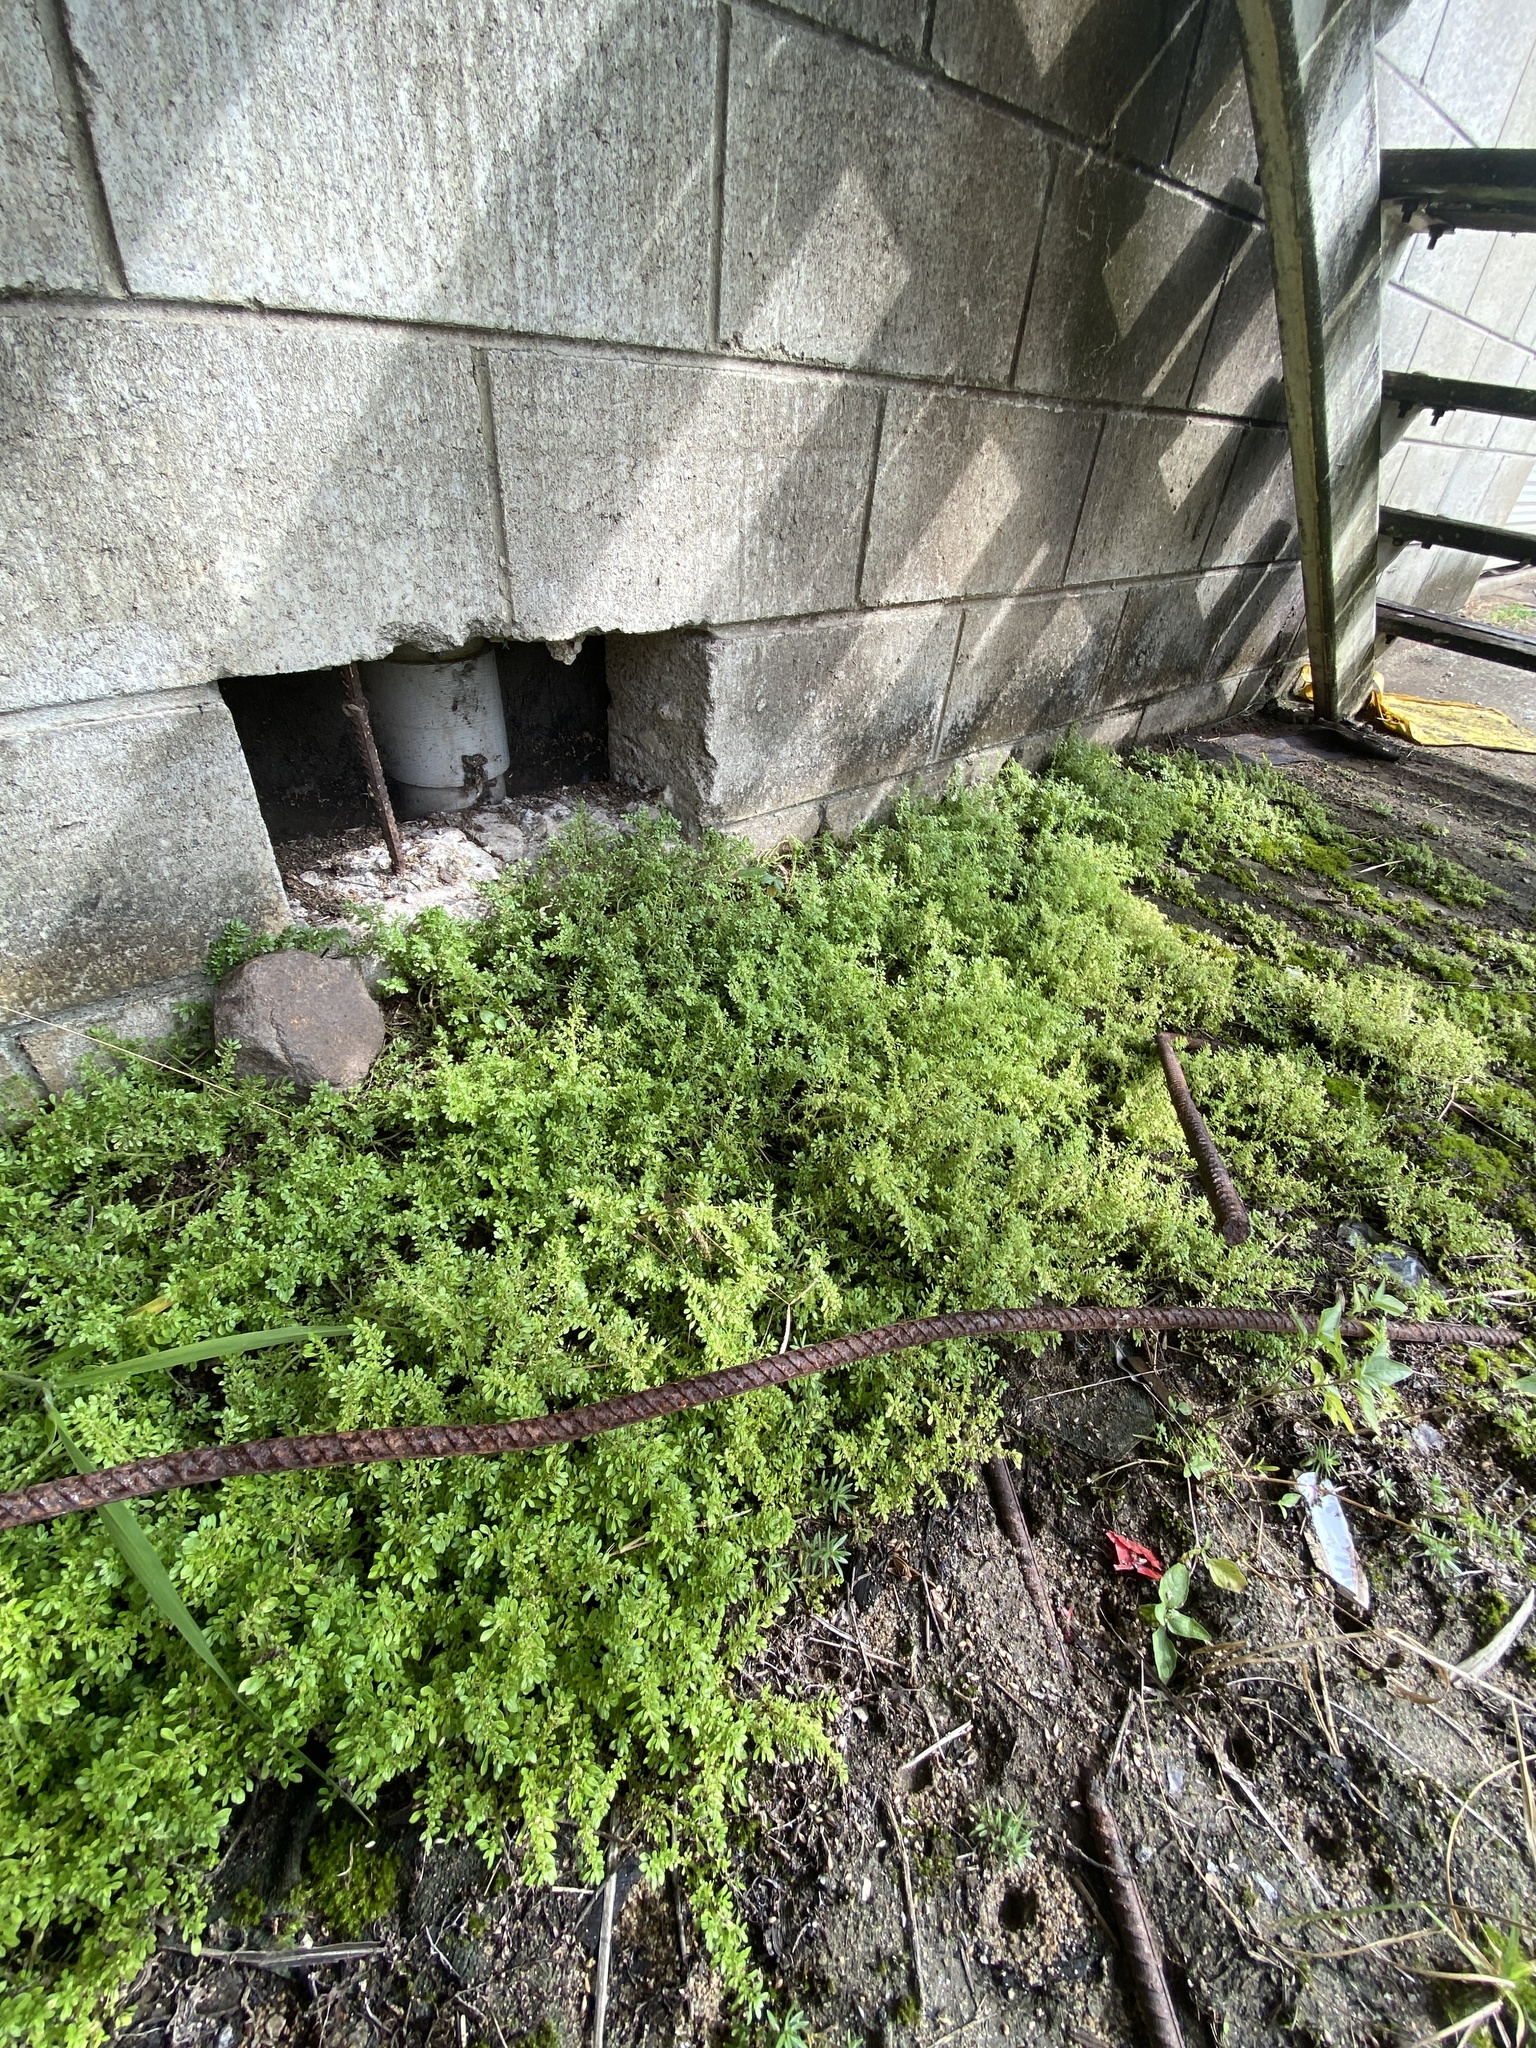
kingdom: Plantae
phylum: Tracheophyta
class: Magnoliopsida
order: Rosales
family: Urticaceae
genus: Pilea
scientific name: Pilea microphylla
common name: Artillery-plant
